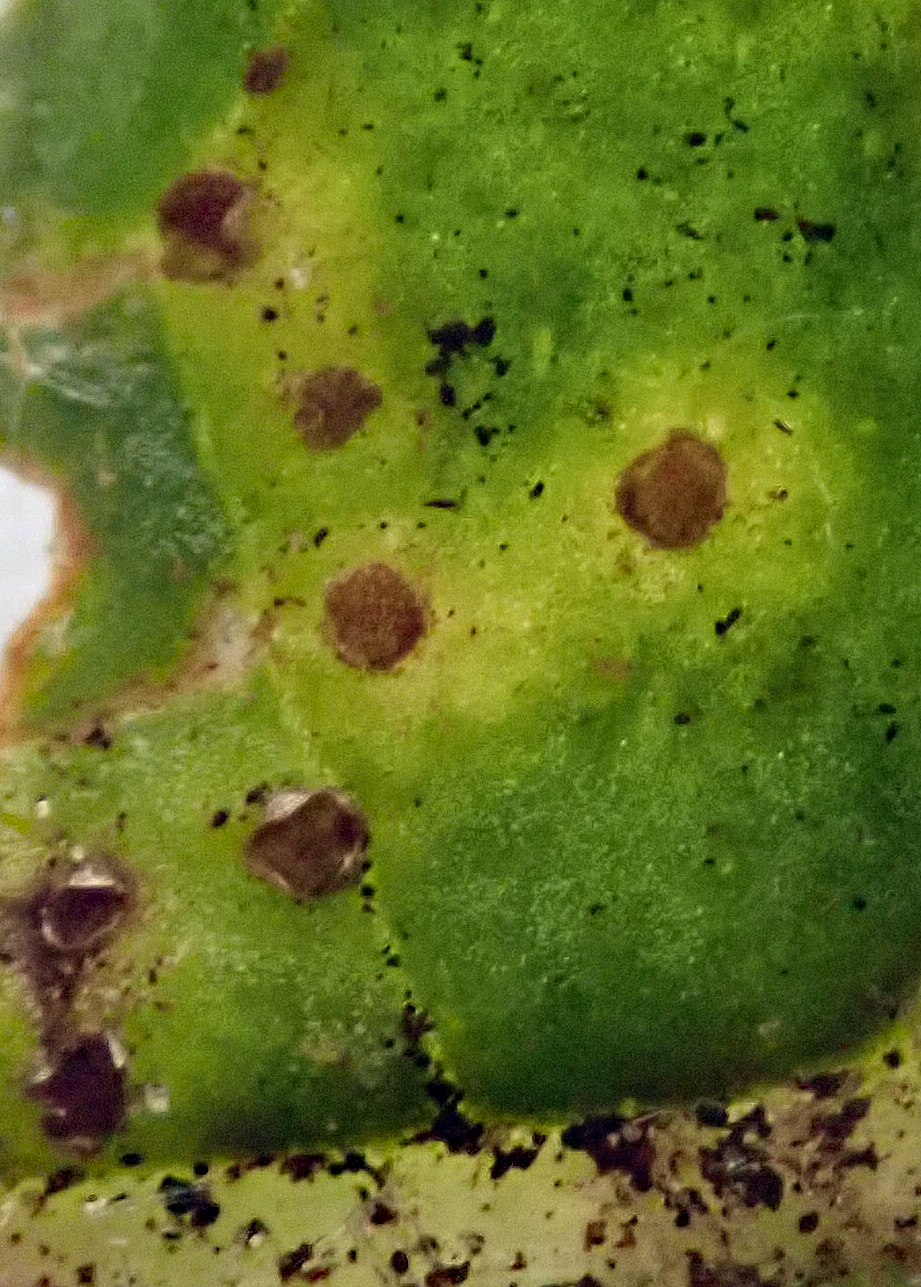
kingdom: Fungi
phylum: Basidiomycota
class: Pucciniomycetes
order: Pucciniales
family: Pucciniaceae
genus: Puccinia
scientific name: Puccinia suaveolens
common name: Thistle rust
